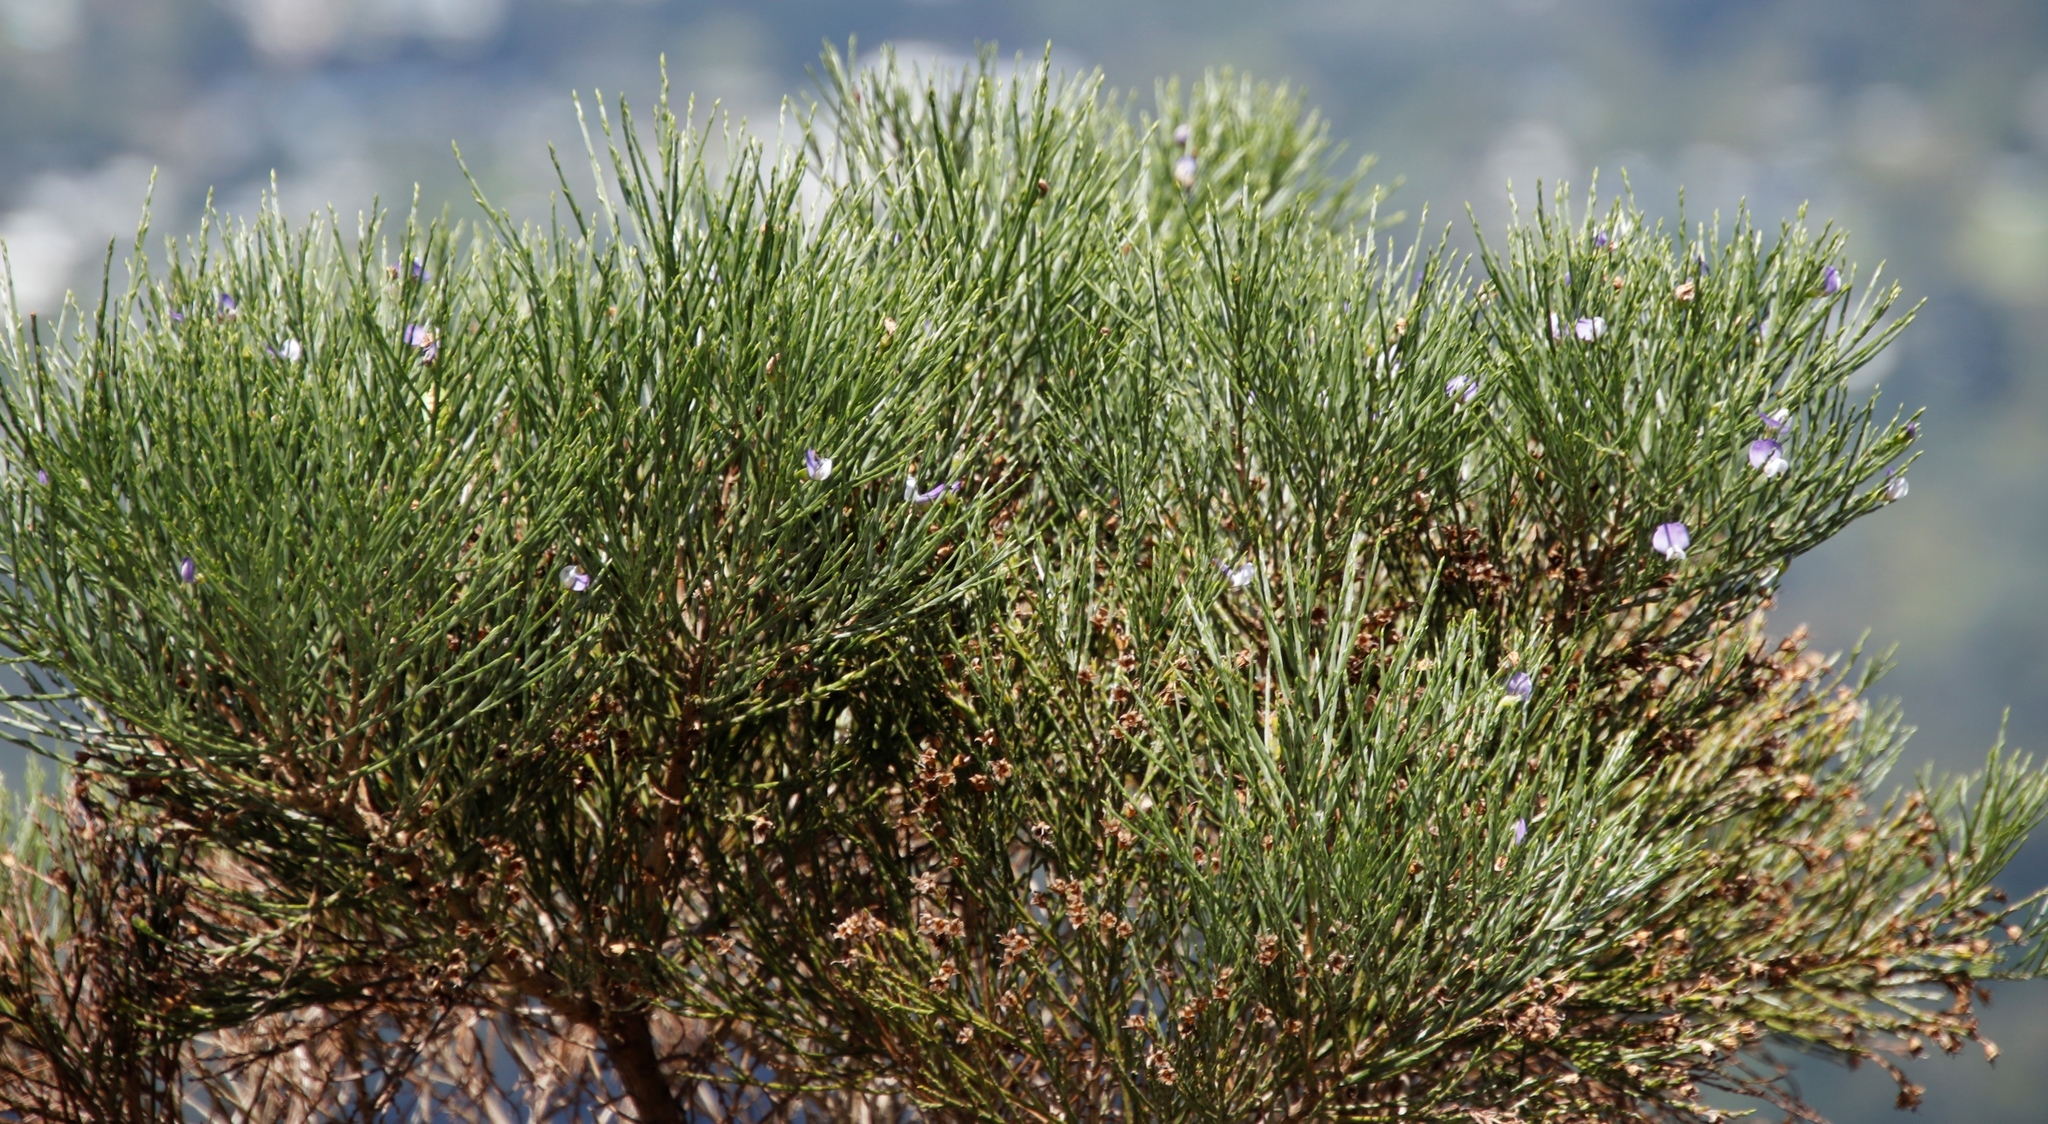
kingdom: Plantae
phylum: Tracheophyta
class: Magnoliopsida
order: Fabales
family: Fabaceae
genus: Psoralea
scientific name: Psoralea congesta
